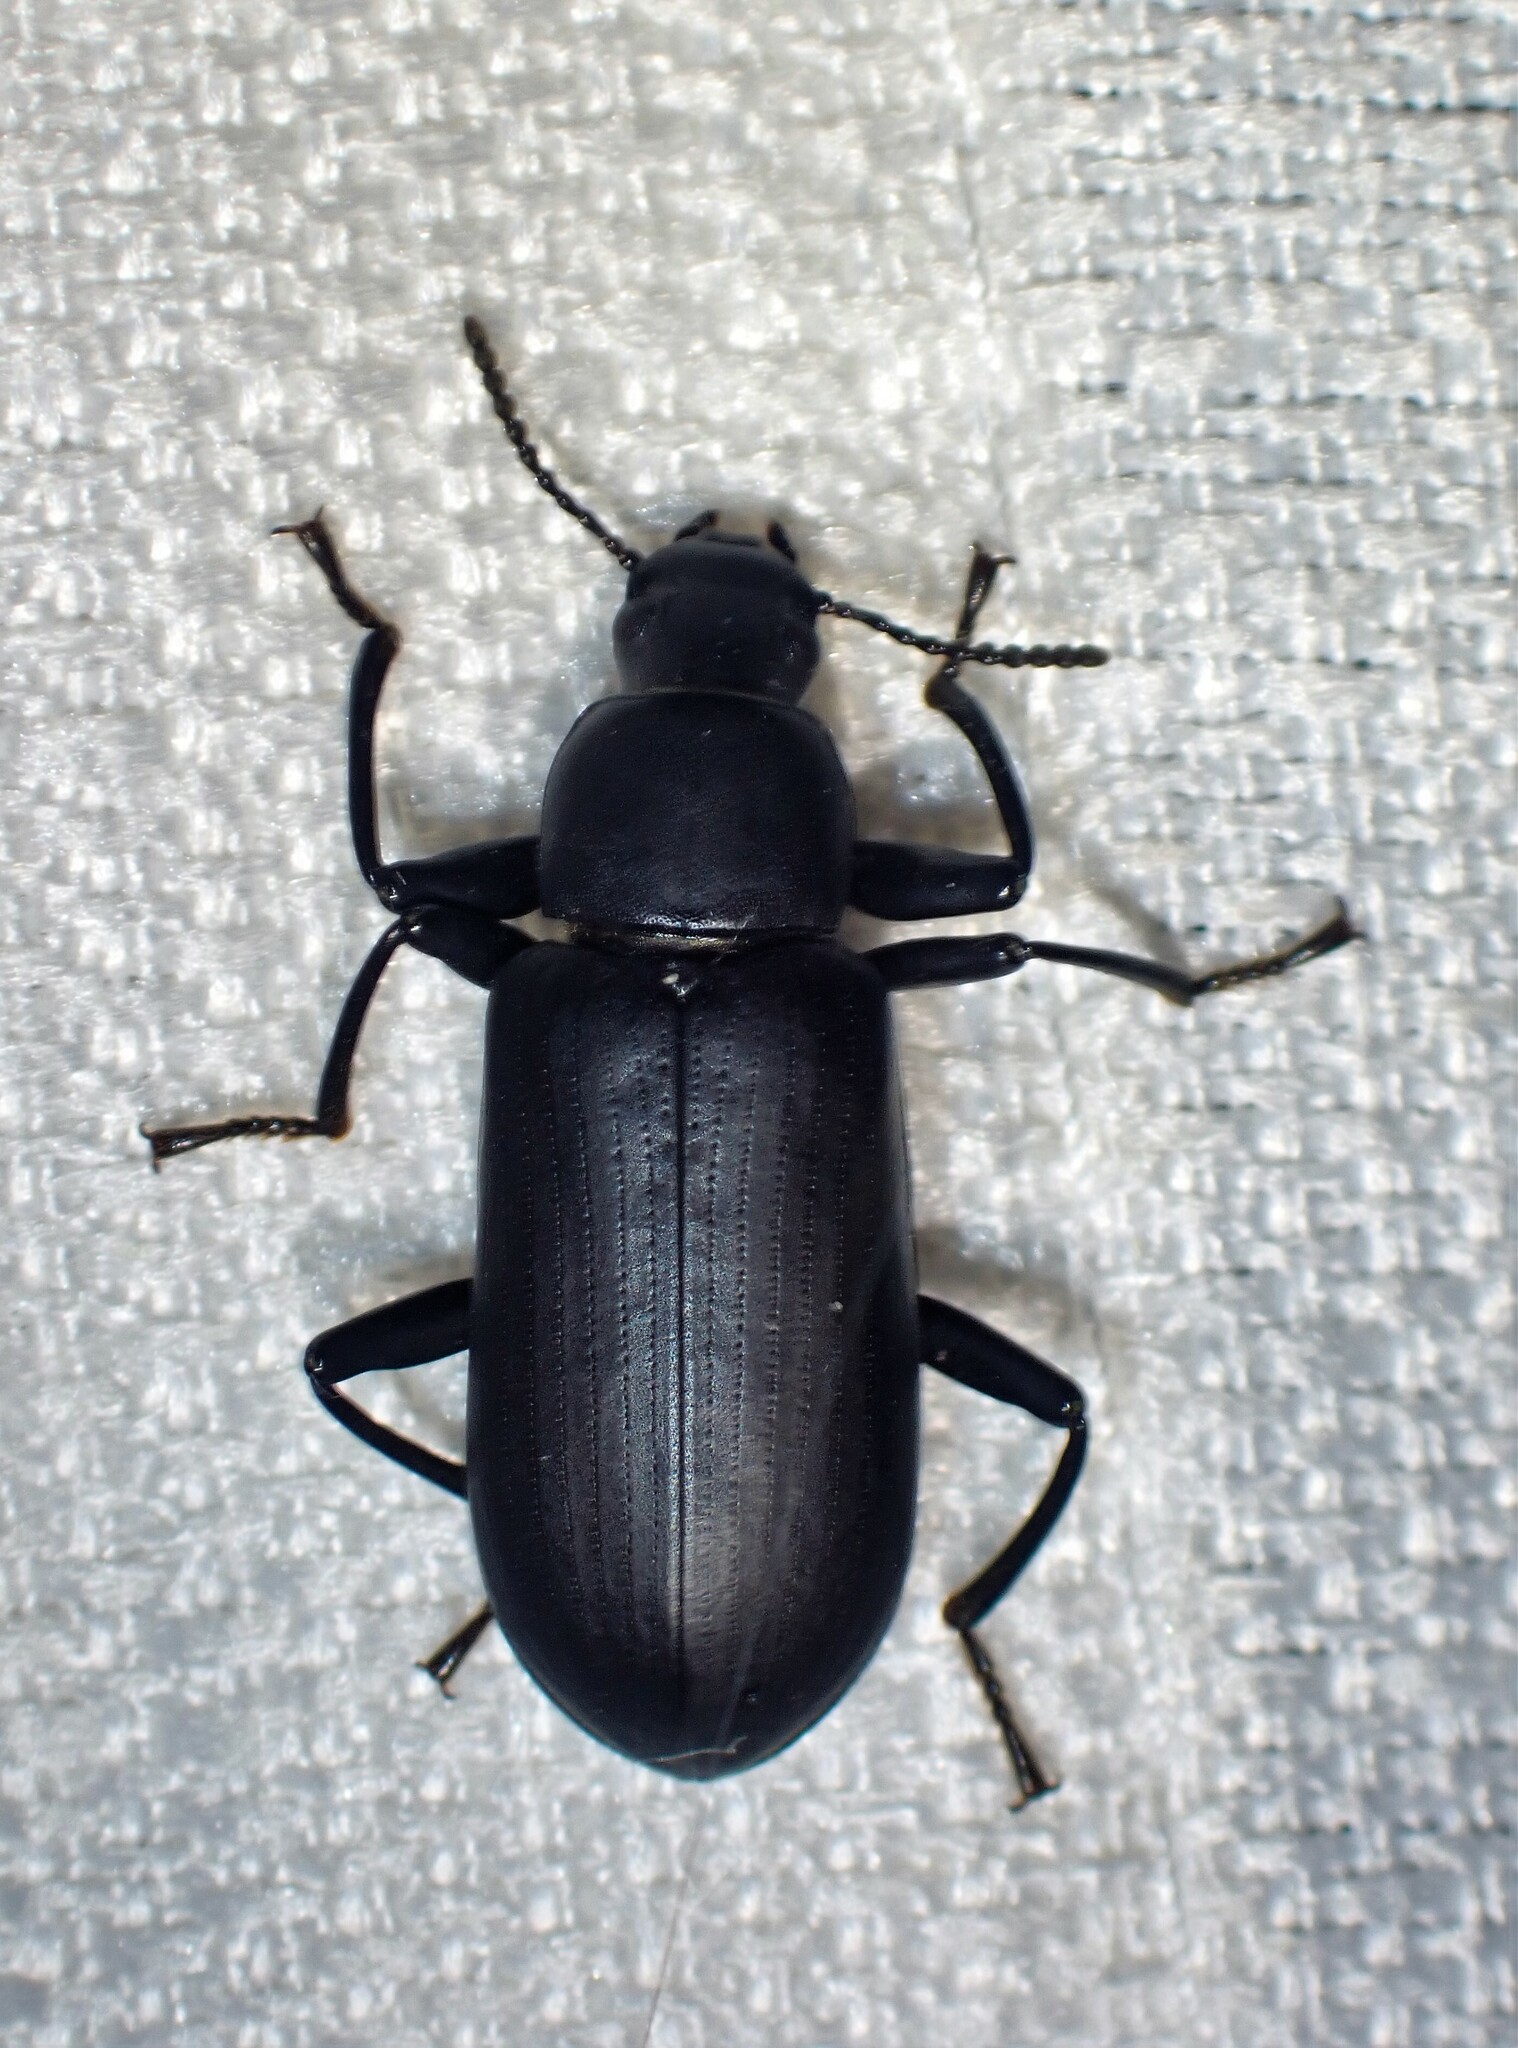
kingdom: Animalia
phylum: Arthropoda
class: Insecta
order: Coleoptera
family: Tenebrionidae
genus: Alobates
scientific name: Alobates pensylvanicus
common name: False mealworm beetle
